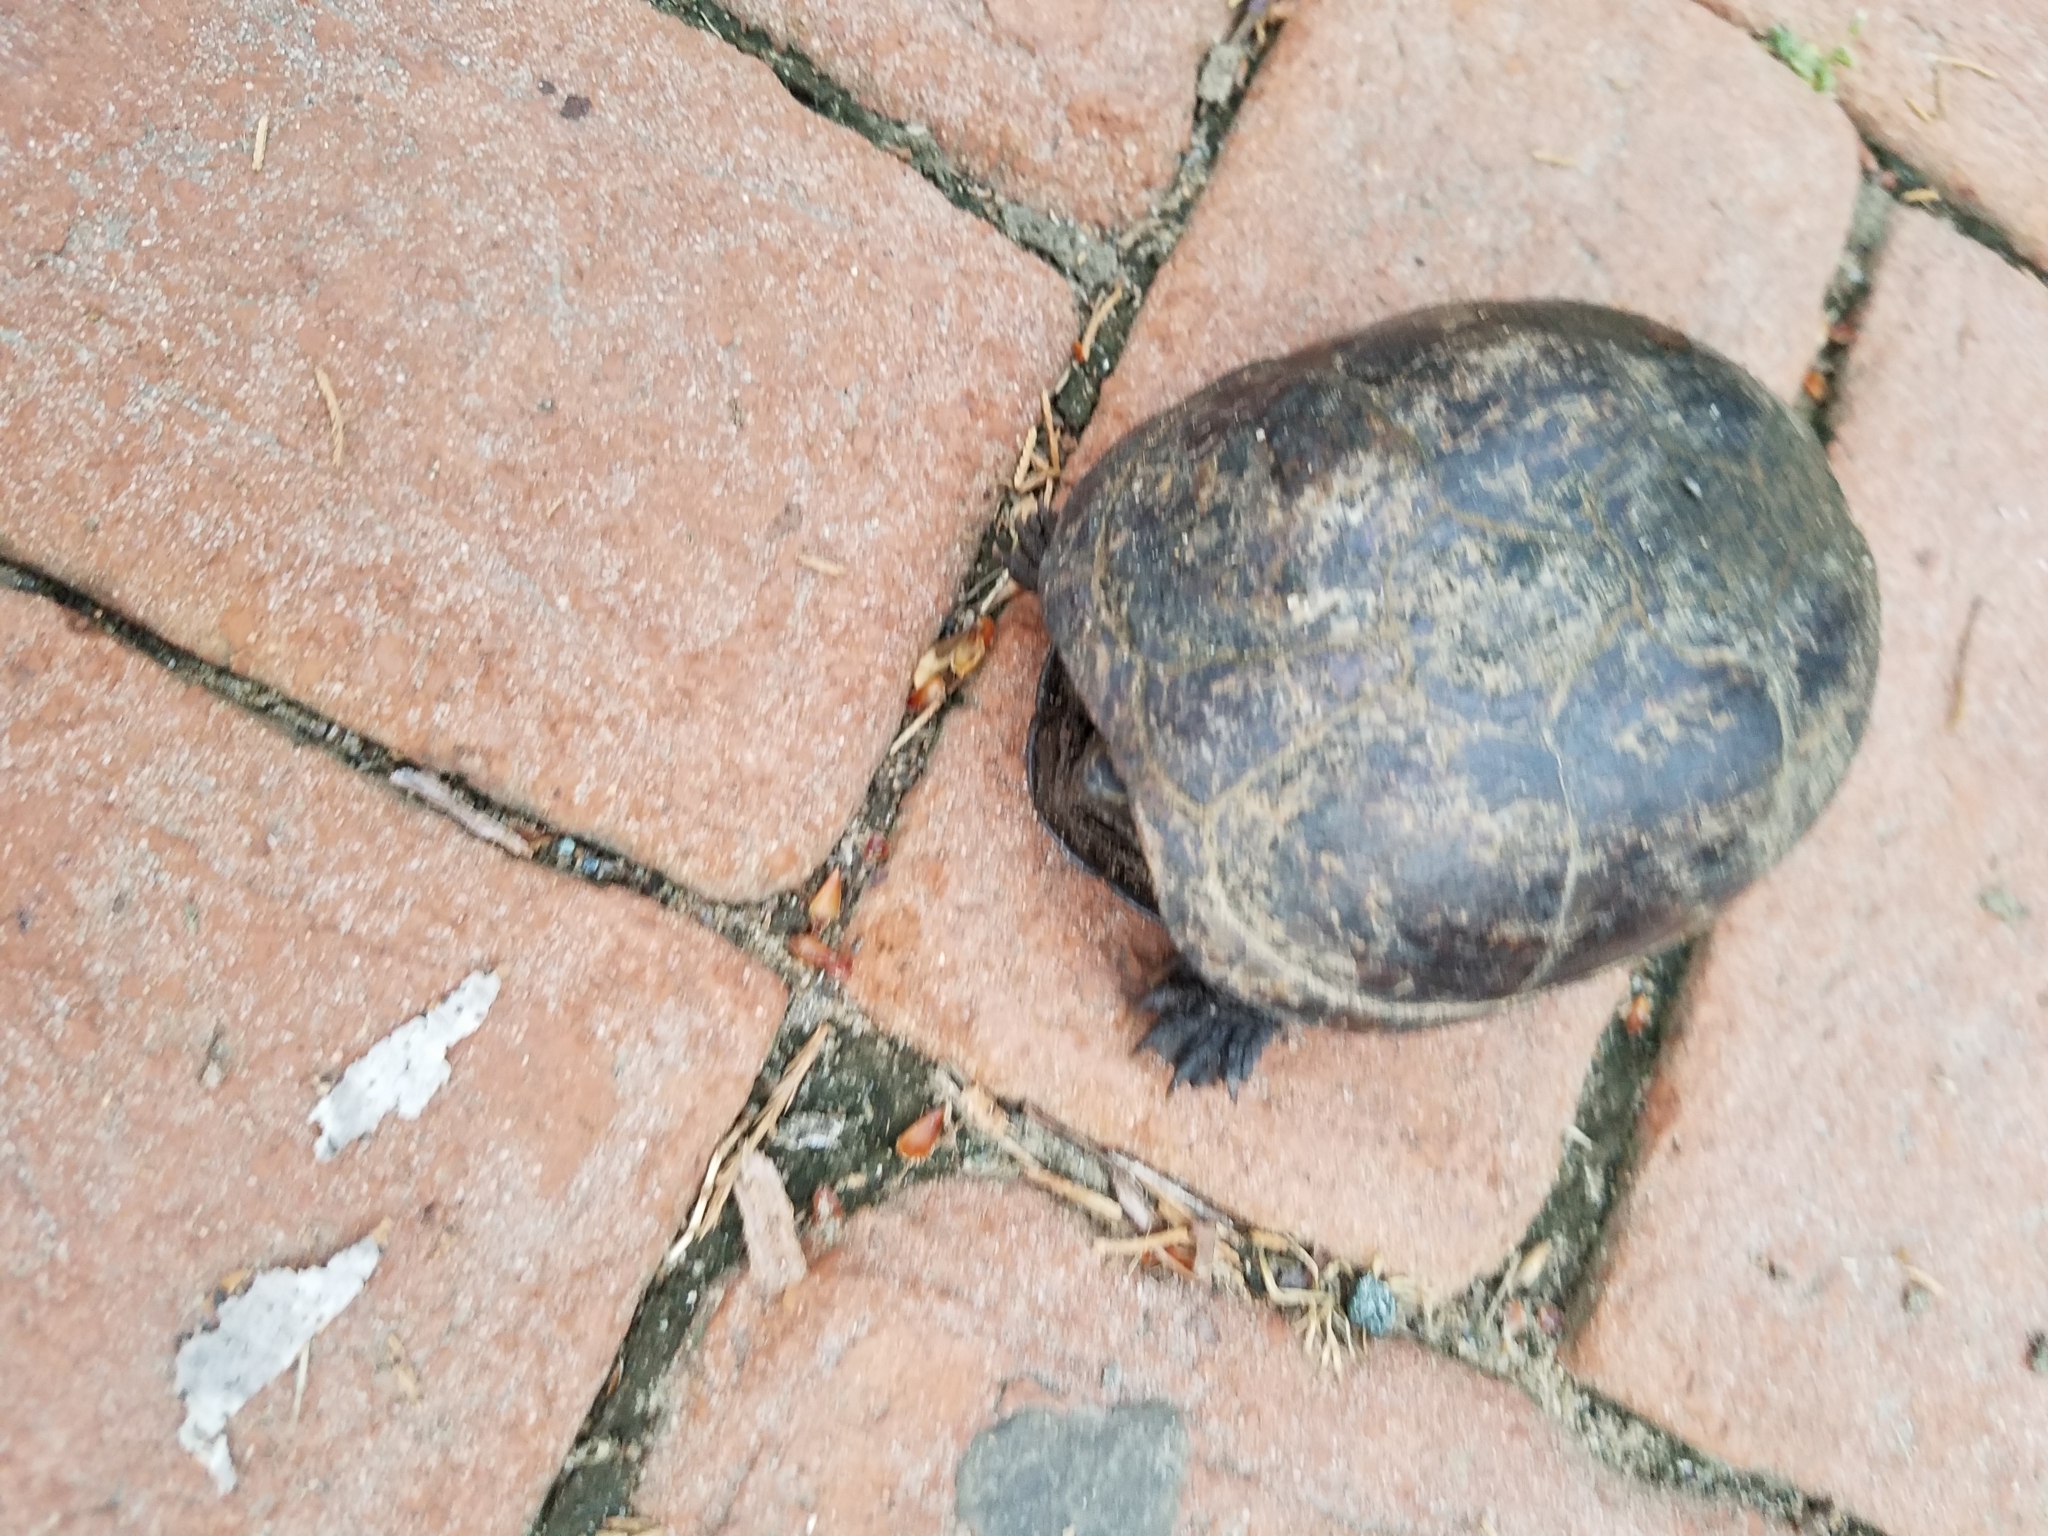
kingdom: Animalia
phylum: Chordata
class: Testudines
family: Kinosternidae
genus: Kinosternon
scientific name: Kinosternon baurii
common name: Striped mud turtle
